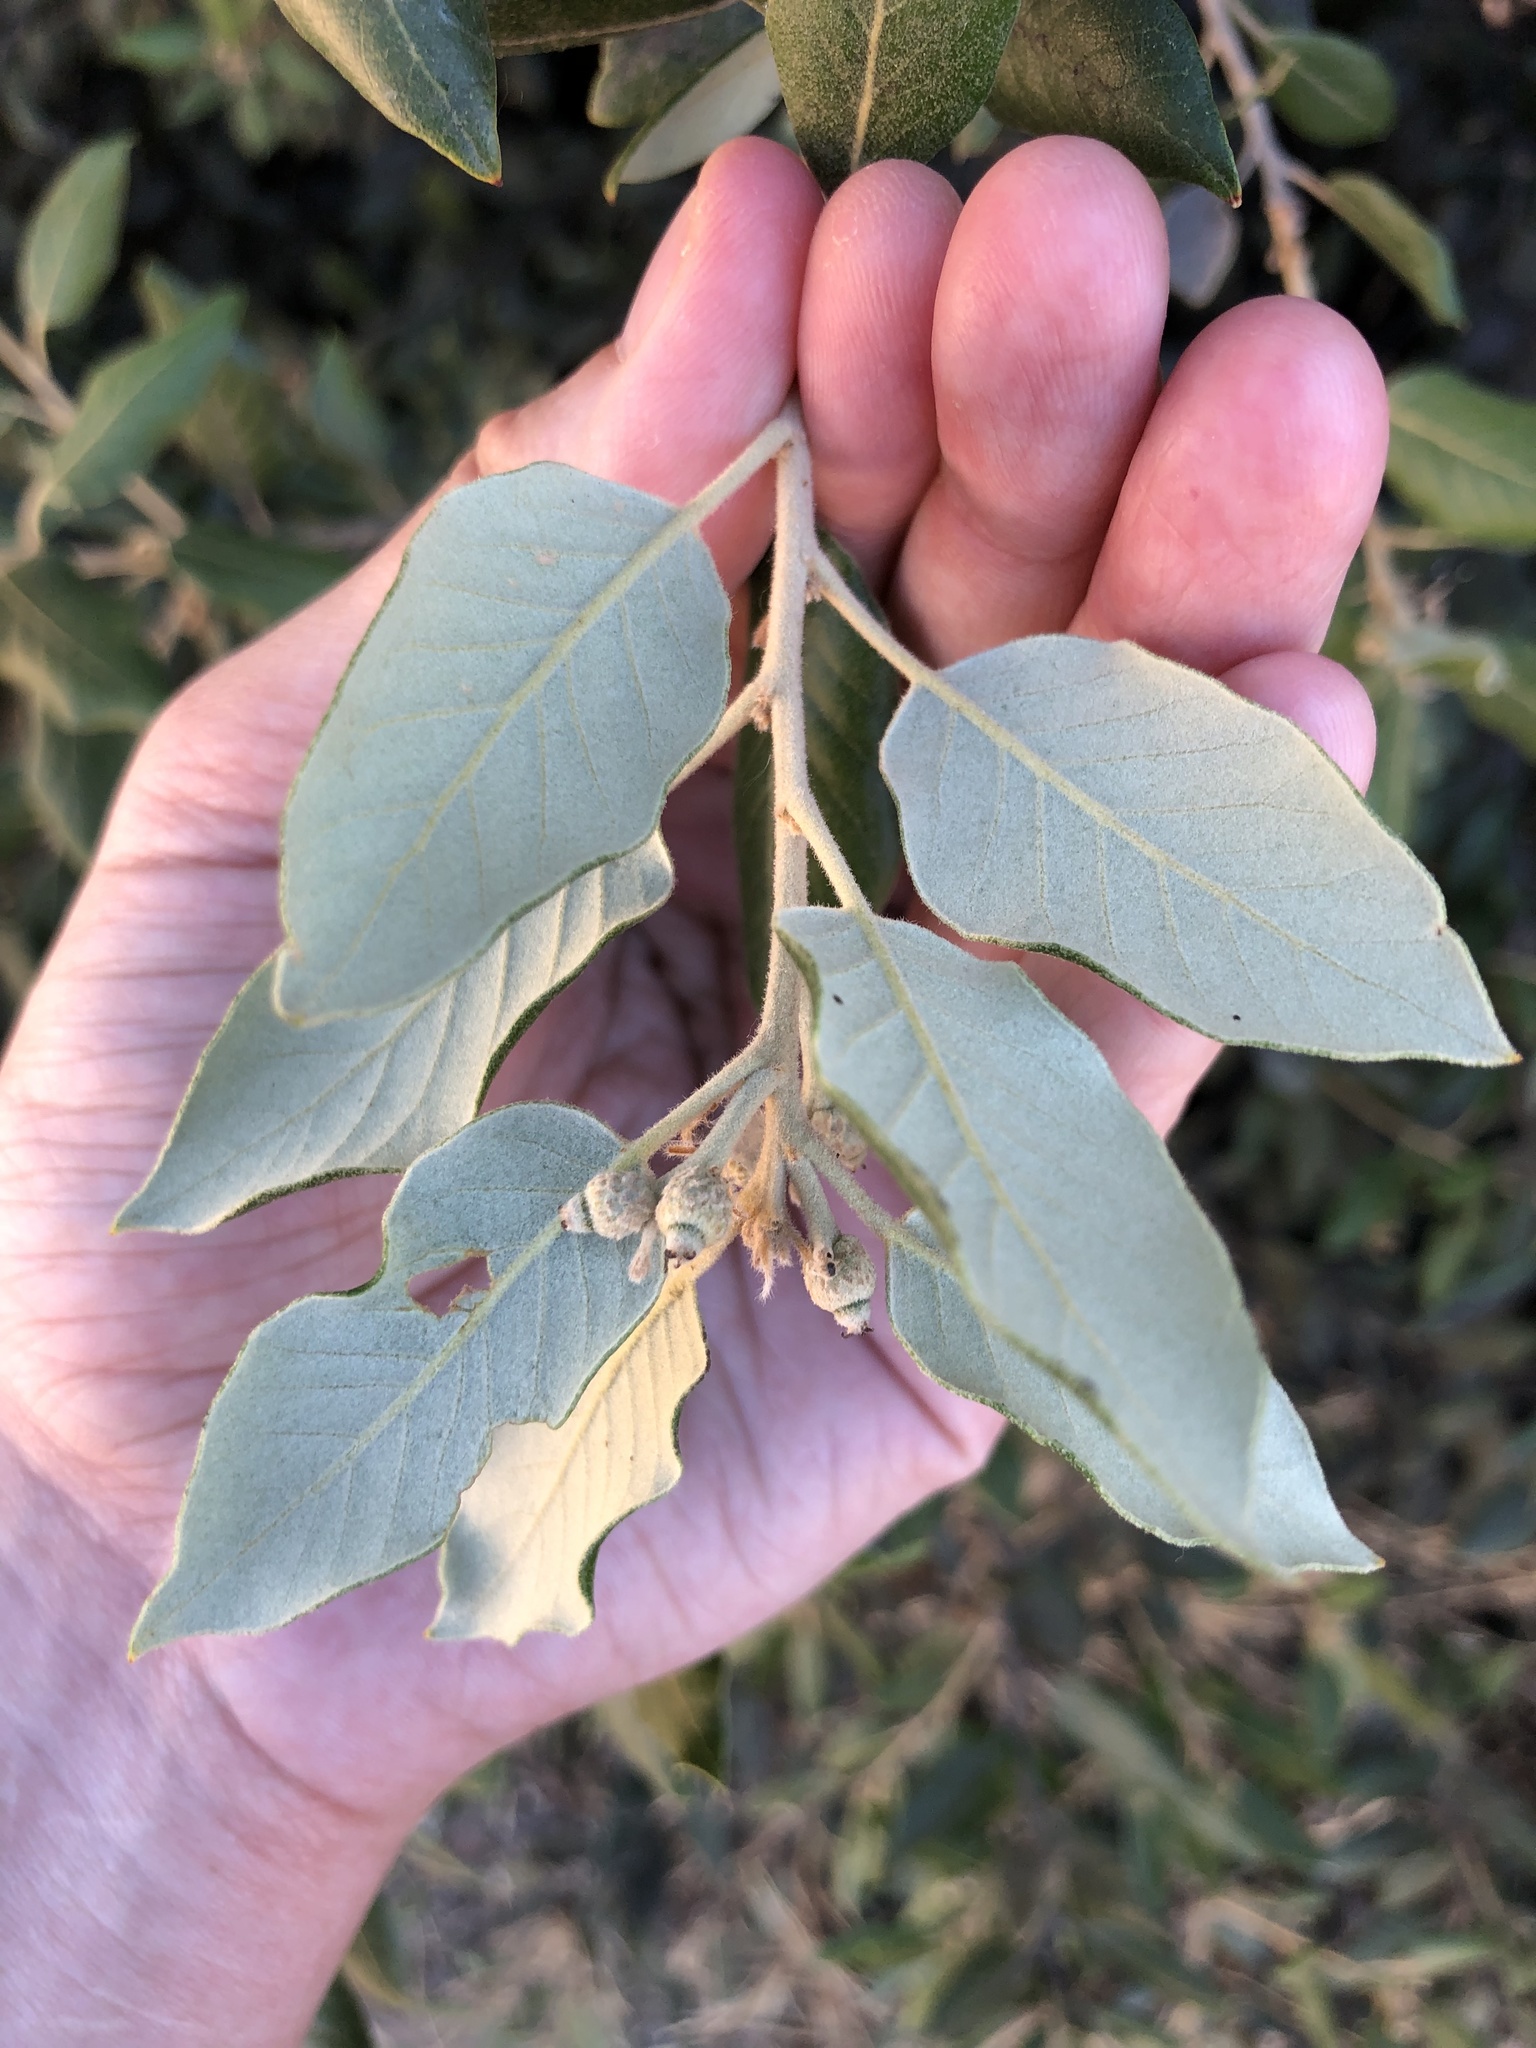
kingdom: Plantae
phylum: Tracheophyta
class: Magnoliopsida
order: Fagales
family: Fagaceae
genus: Quercus
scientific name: Quercus ilex
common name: Evergreen oak
